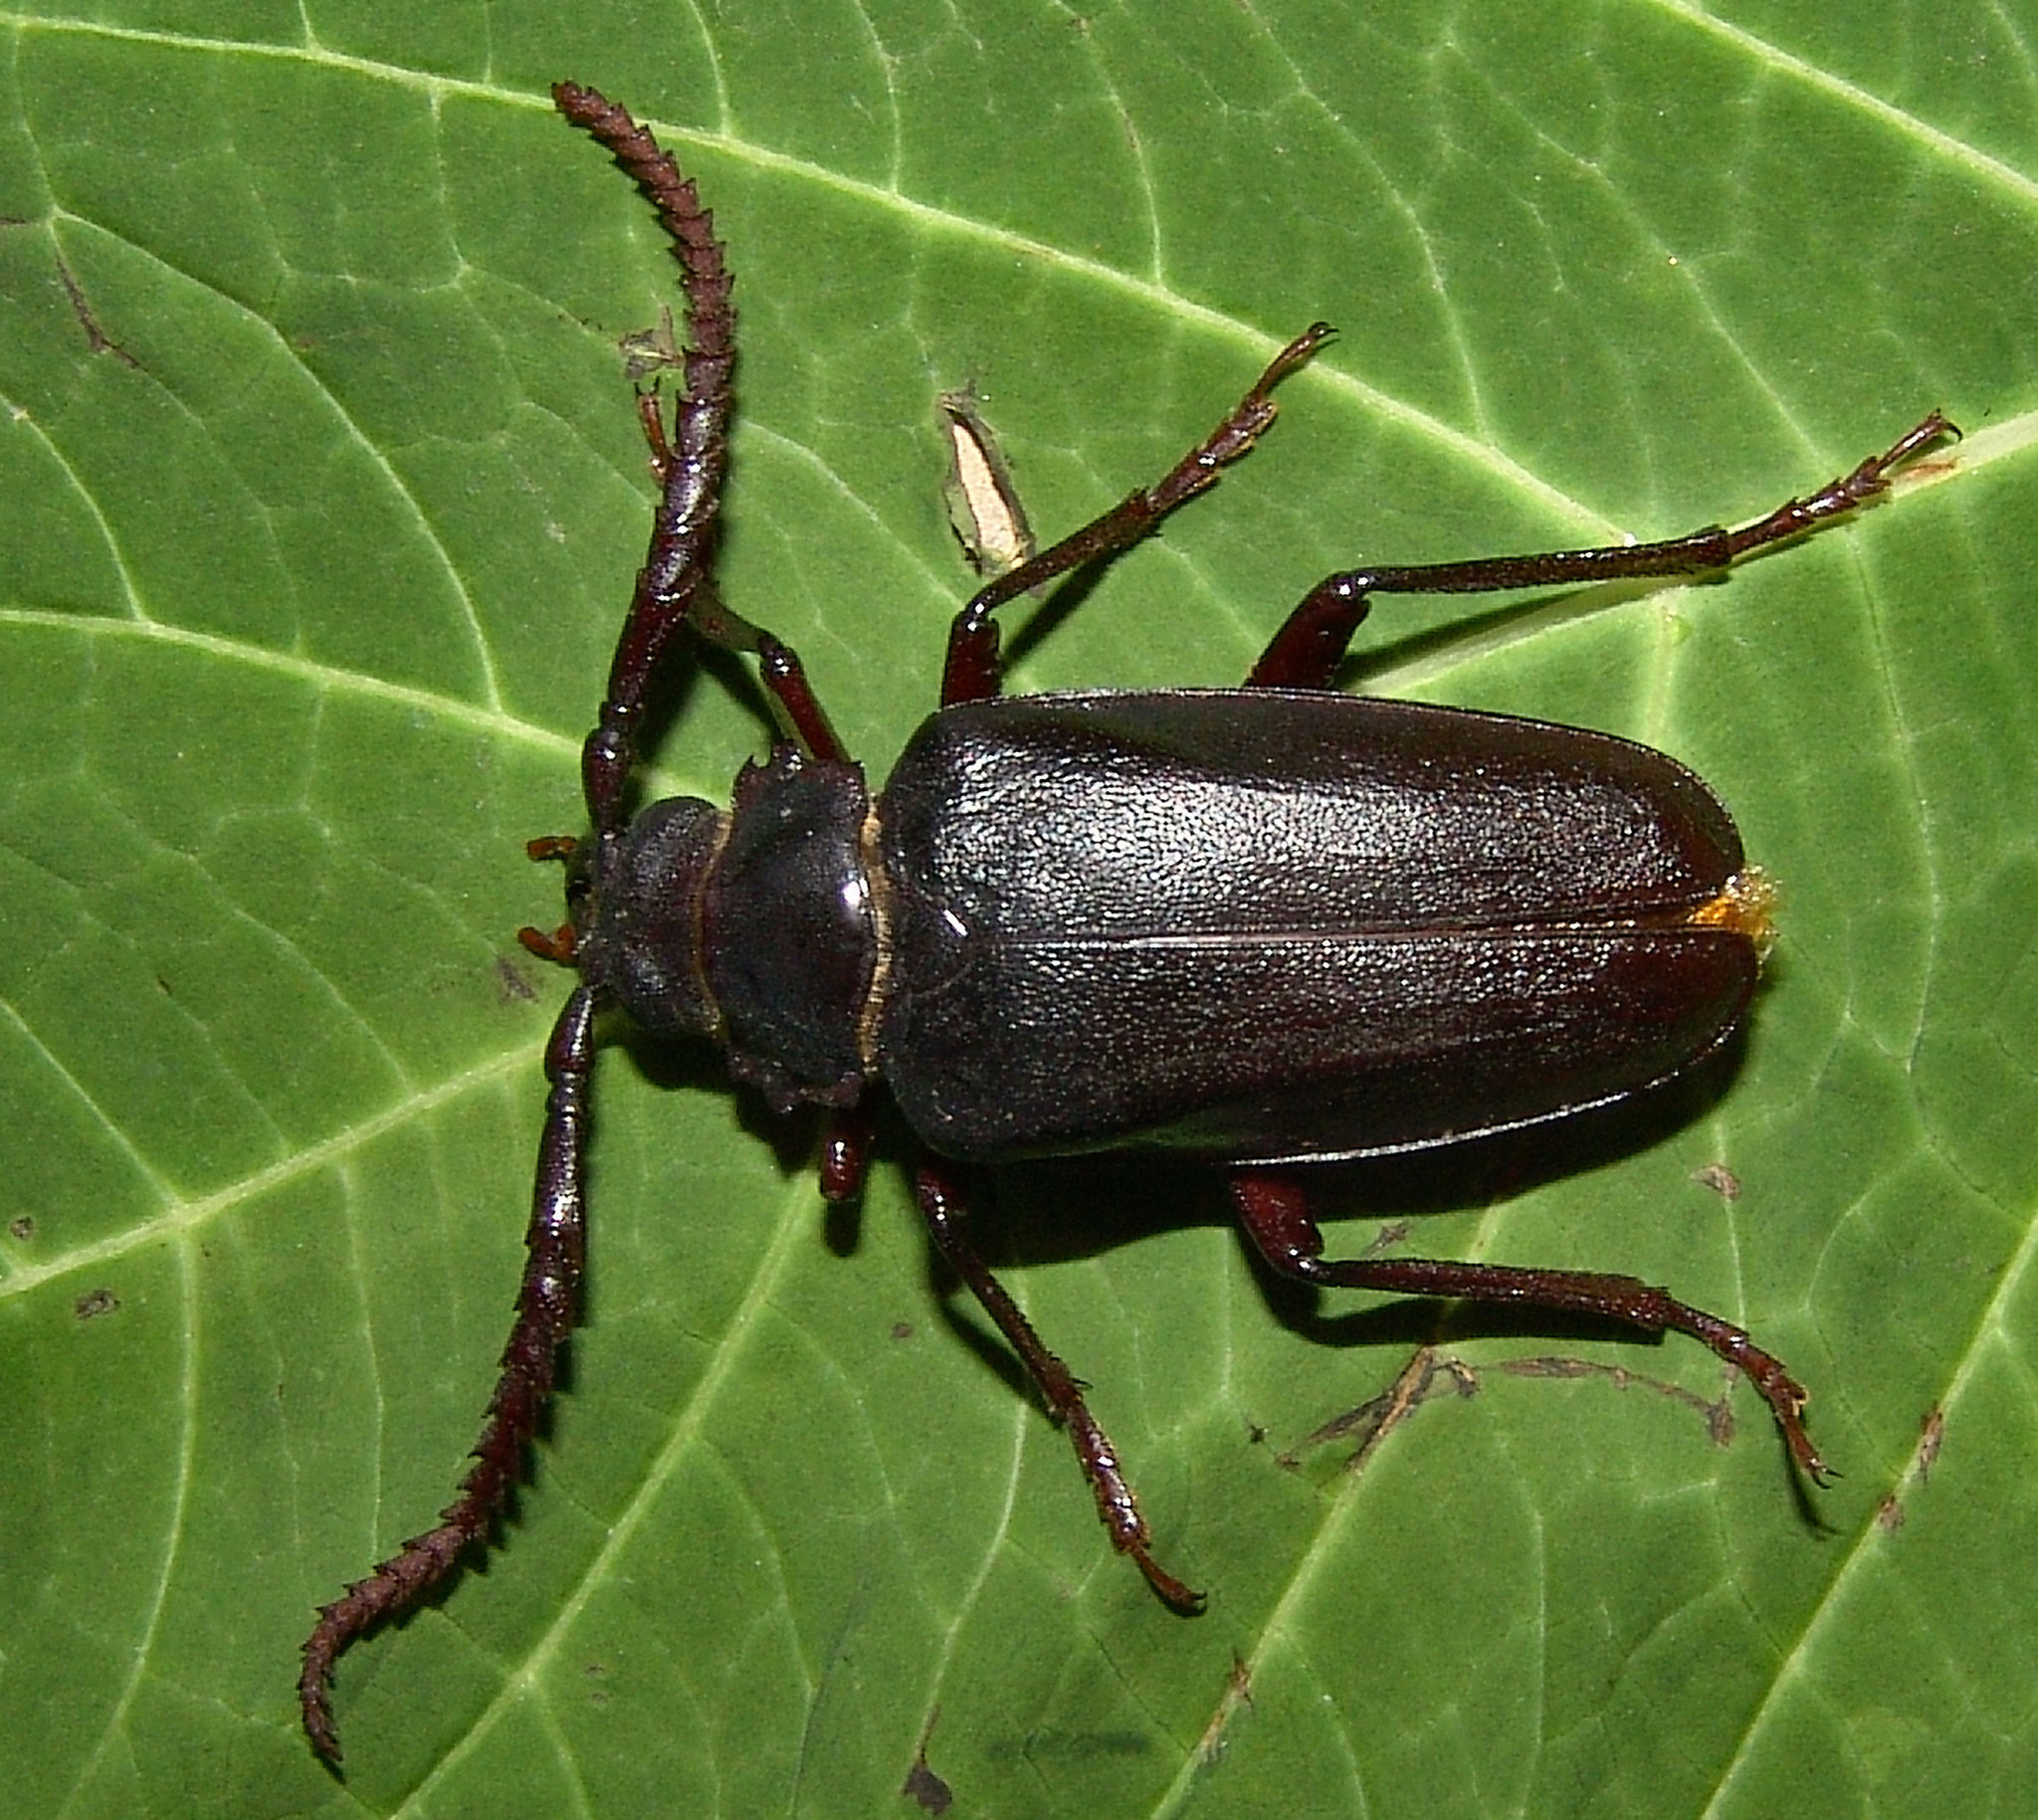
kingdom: Animalia
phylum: Arthropoda
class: Insecta
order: Coleoptera
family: Cerambycidae
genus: Prionus
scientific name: Prionus imbricornis
